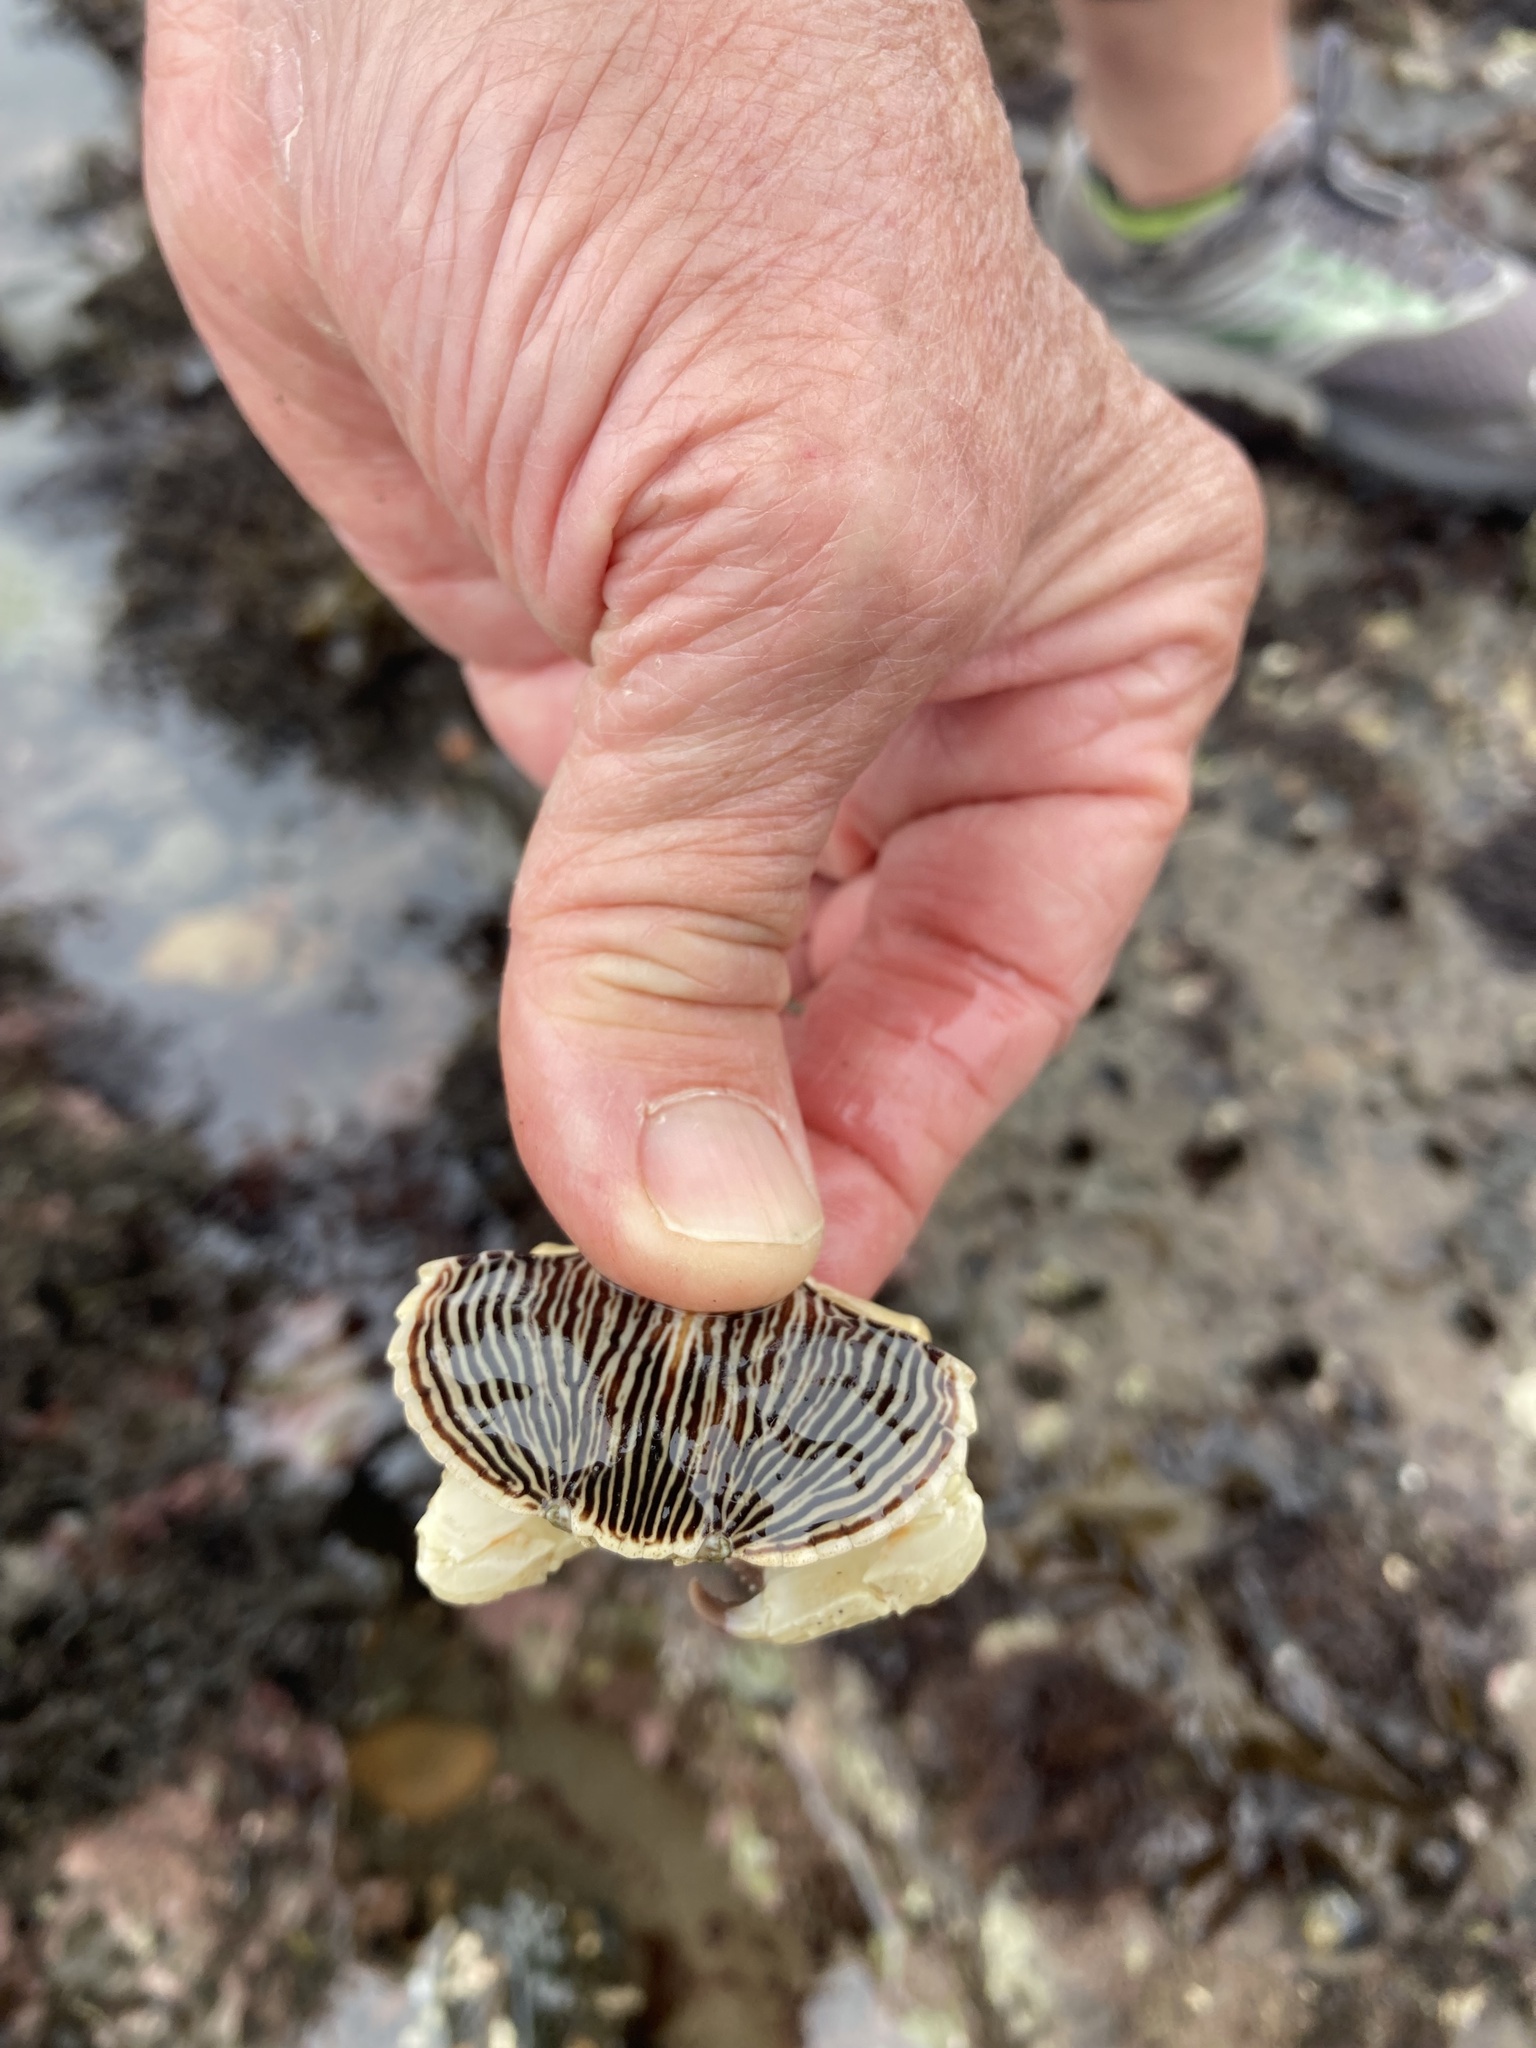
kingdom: Animalia
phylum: Arthropoda
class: Malacostraca
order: Decapoda
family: Cancridae
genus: Cancer
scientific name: Cancer productus
